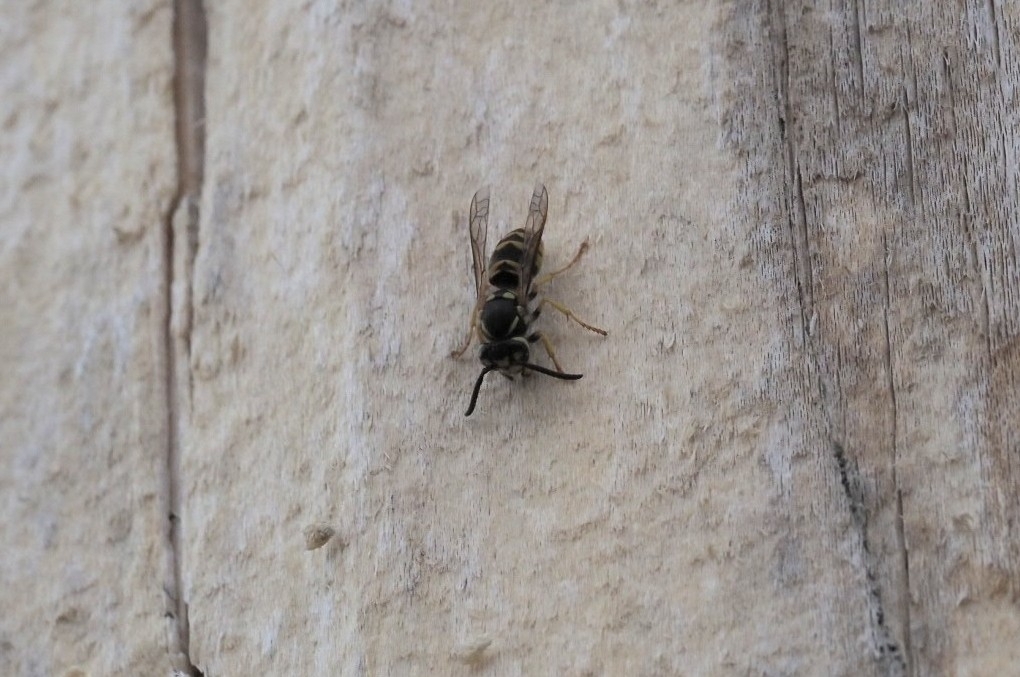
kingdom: Animalia
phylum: Arthropoda
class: Insecta
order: Hymenoptera
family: Vespidae
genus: Vespula
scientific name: Vespula germanica
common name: German wasp
